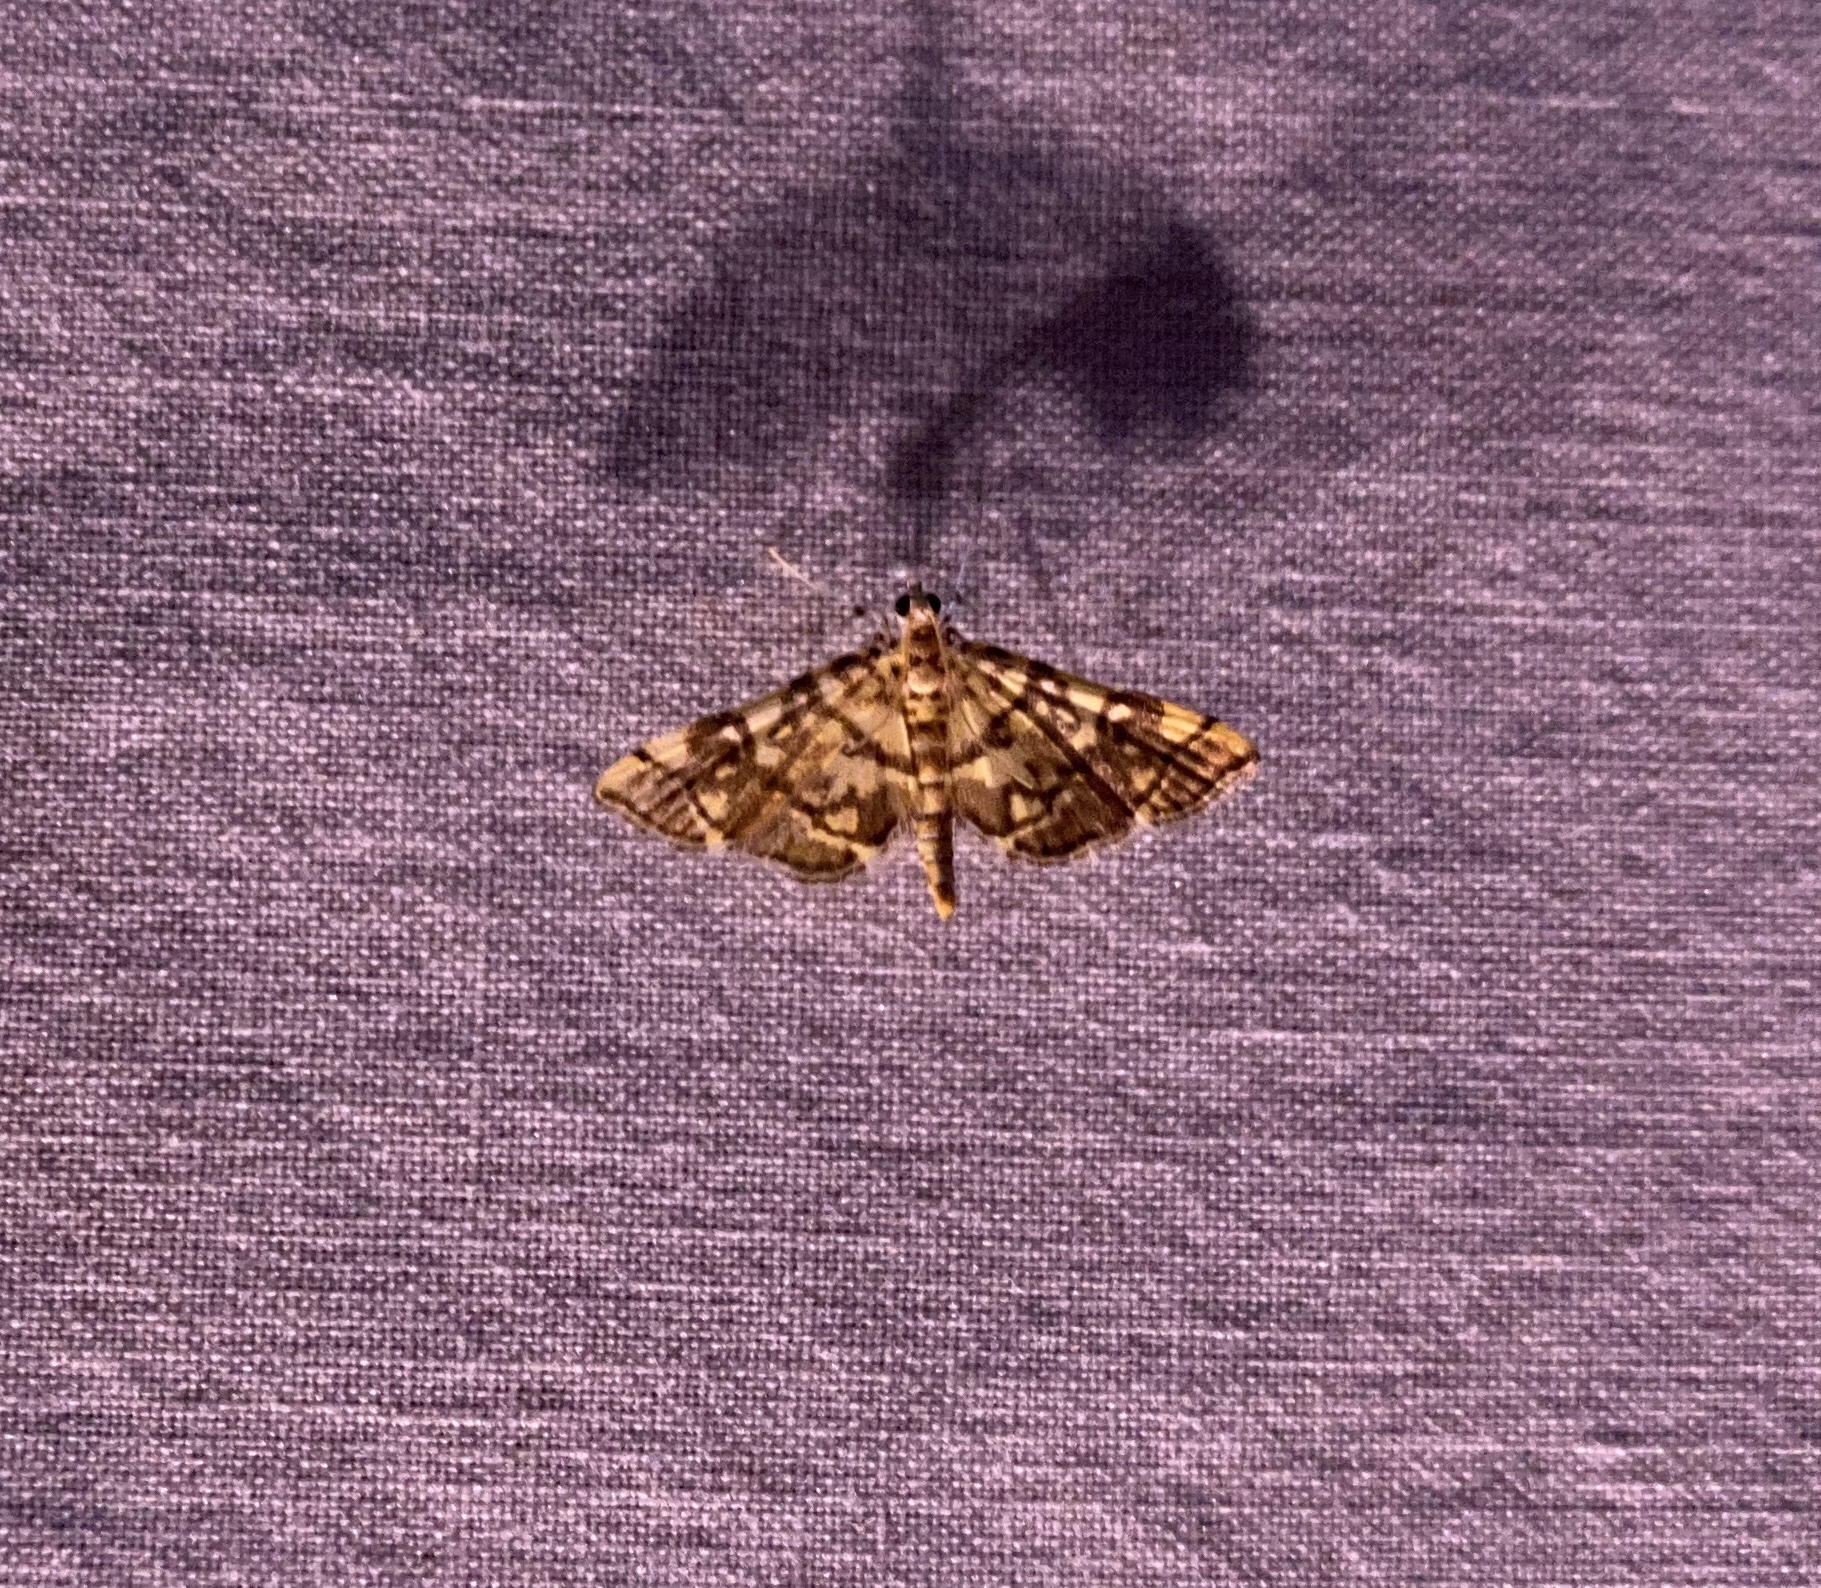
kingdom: Animalia
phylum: Arthropoda
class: Insecta
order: Lepidoptera
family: Crambidae
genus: Apogeshna
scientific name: Apogeshna stenialis
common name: Checkered apogeshna moth
